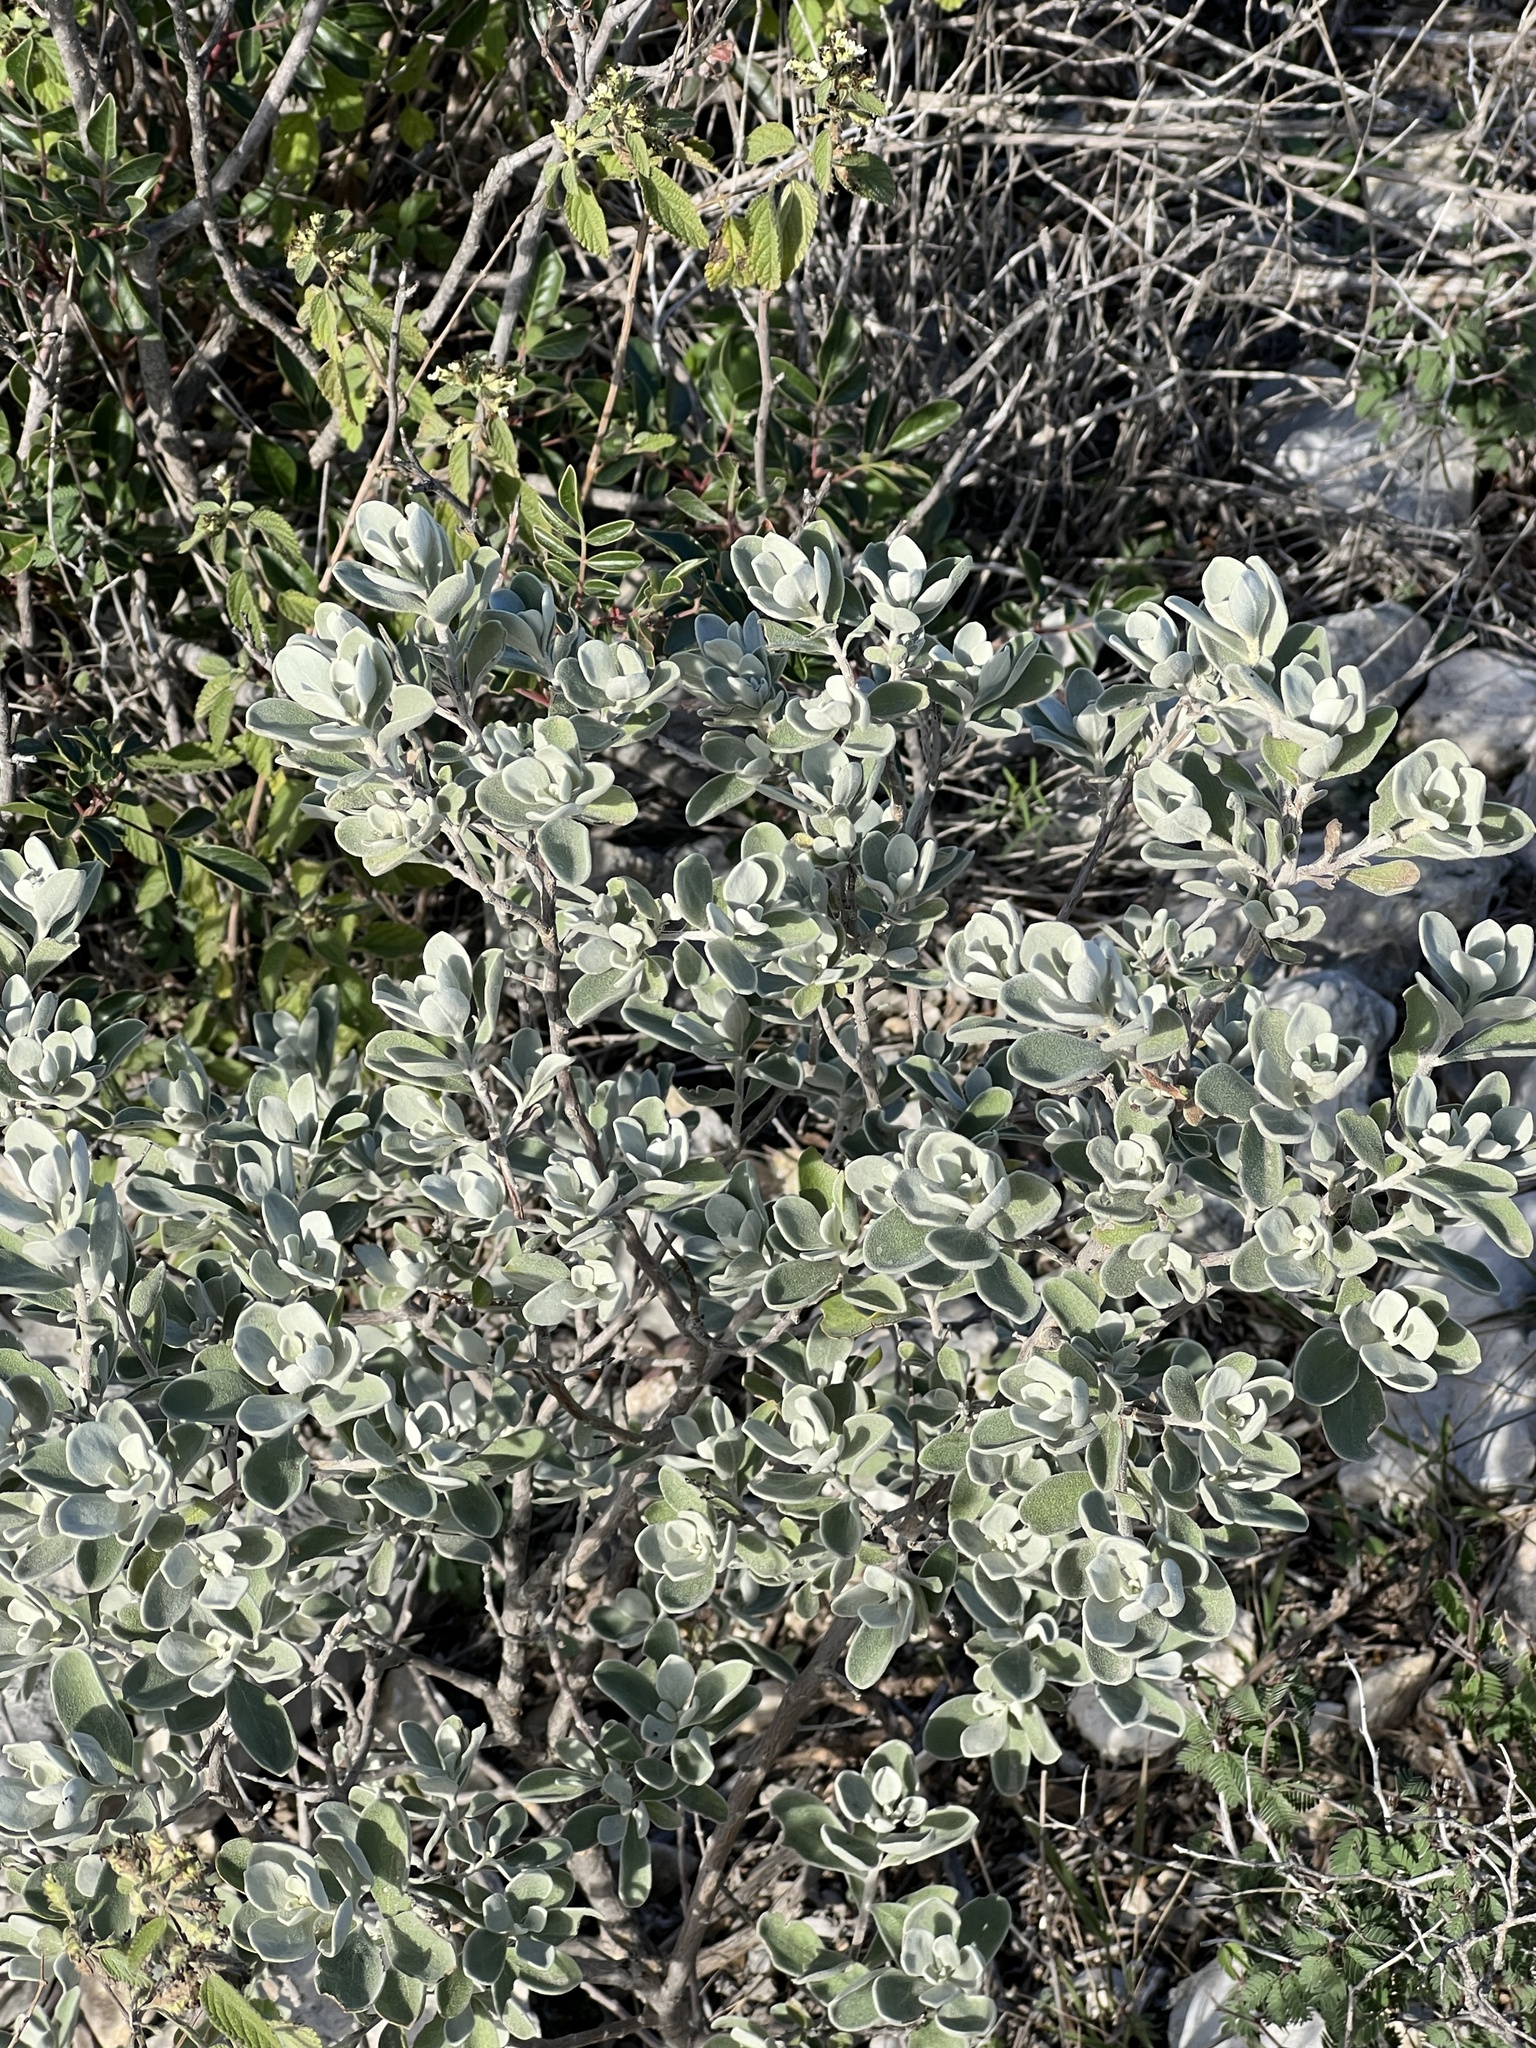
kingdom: Plantae
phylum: Tracheophyta
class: Magnoliopsida
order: Lamiales
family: Scrophulariaceae
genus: Leucophyllum
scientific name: Leucophyllum frutescens
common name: Texas silverleaf
